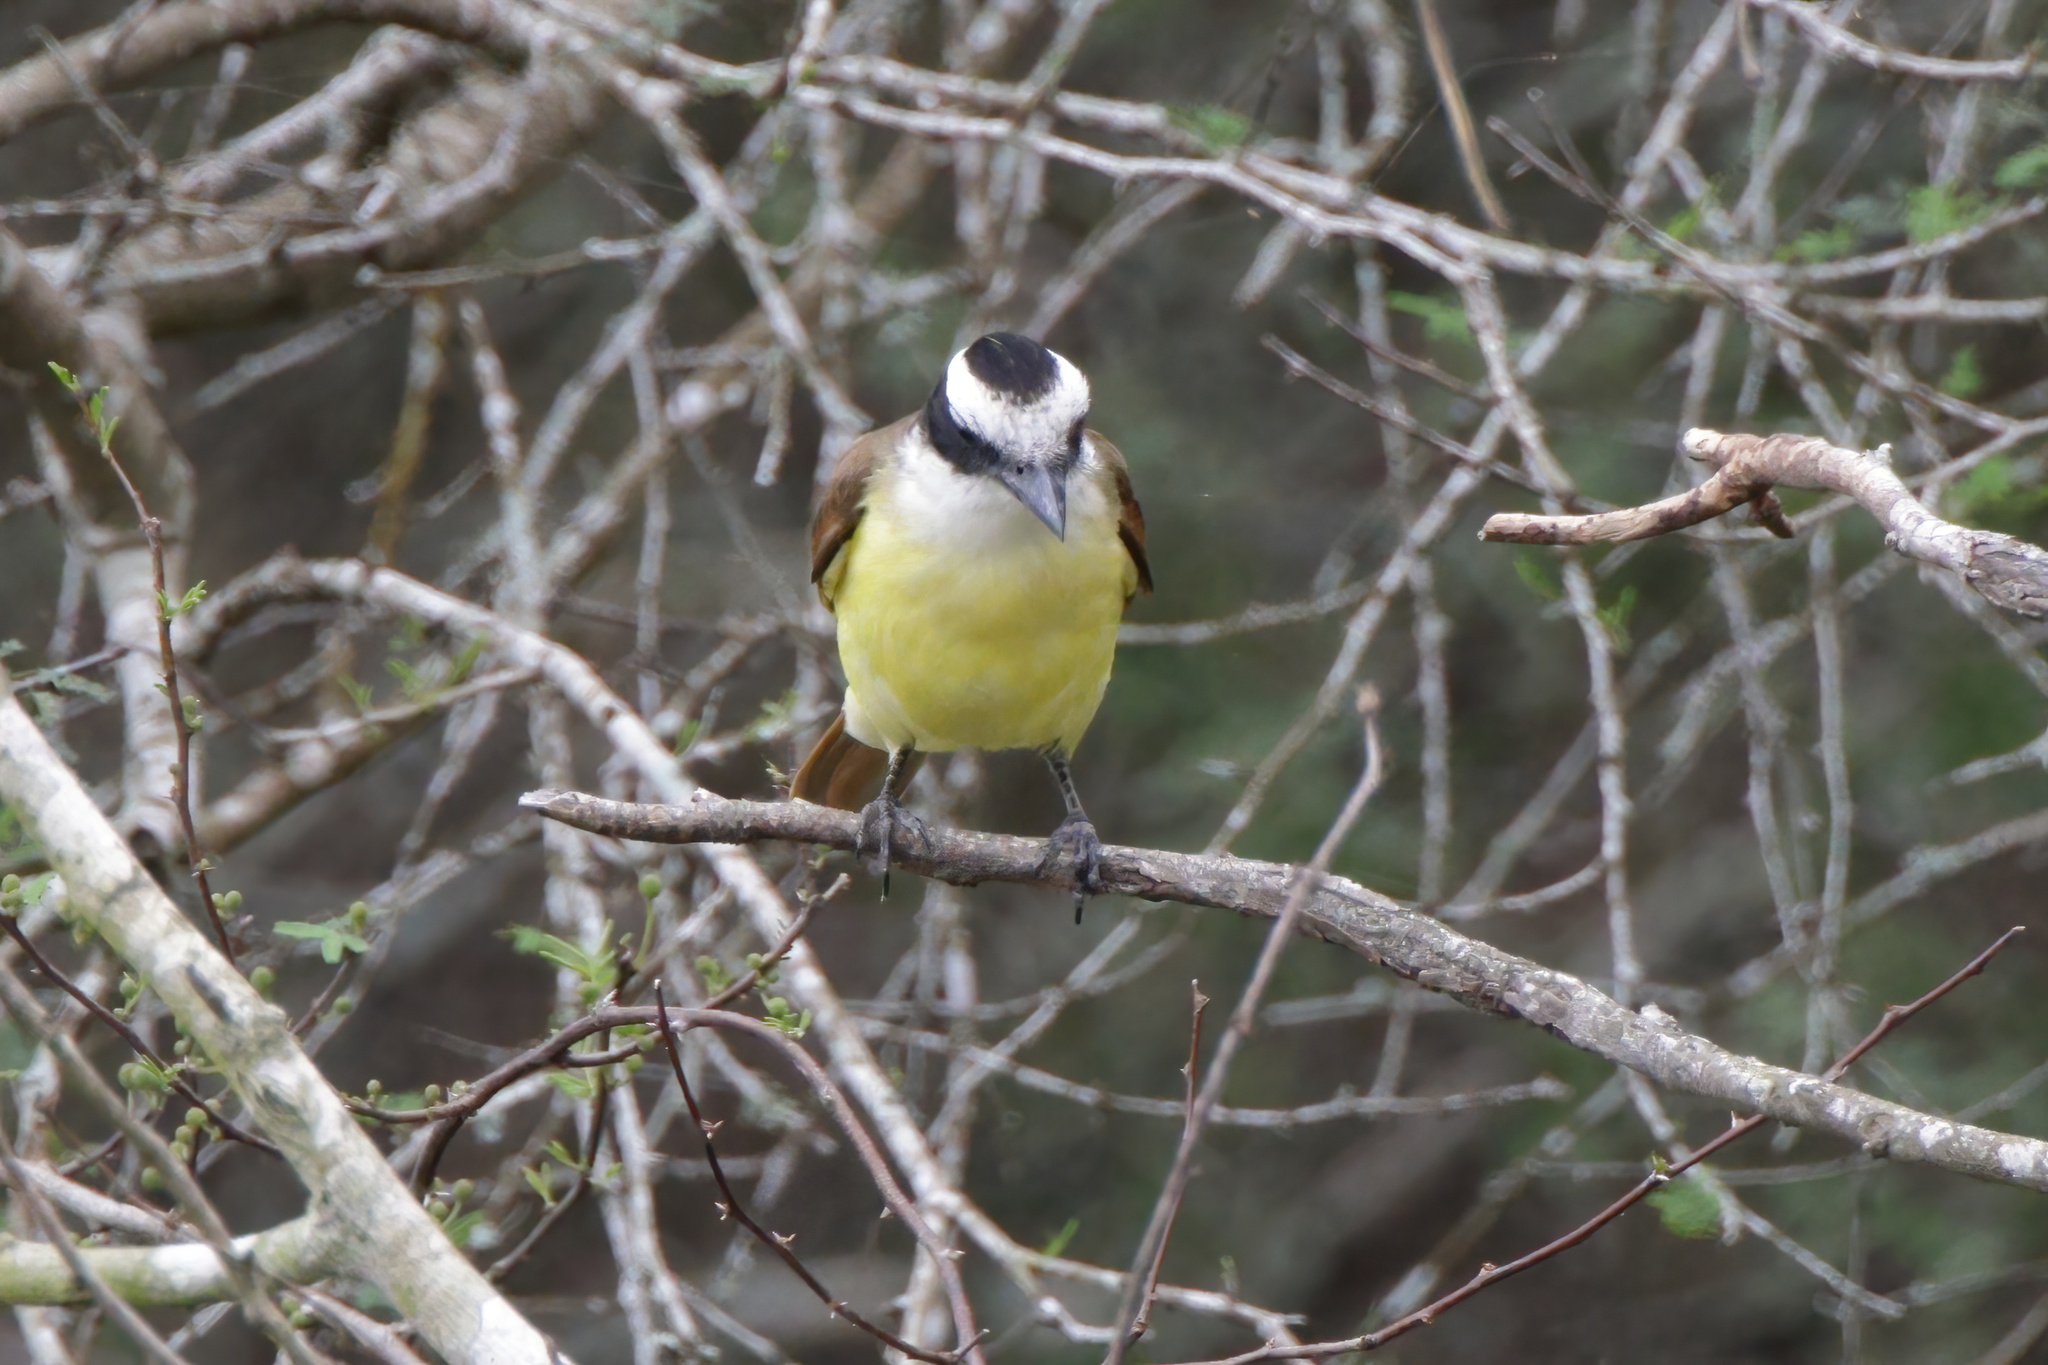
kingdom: Animalia
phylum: Chordata
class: Aves
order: Passeriformes
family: Tyrannidae
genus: Pitangus
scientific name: Pitangus sulphuratus
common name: Great kiskadee
